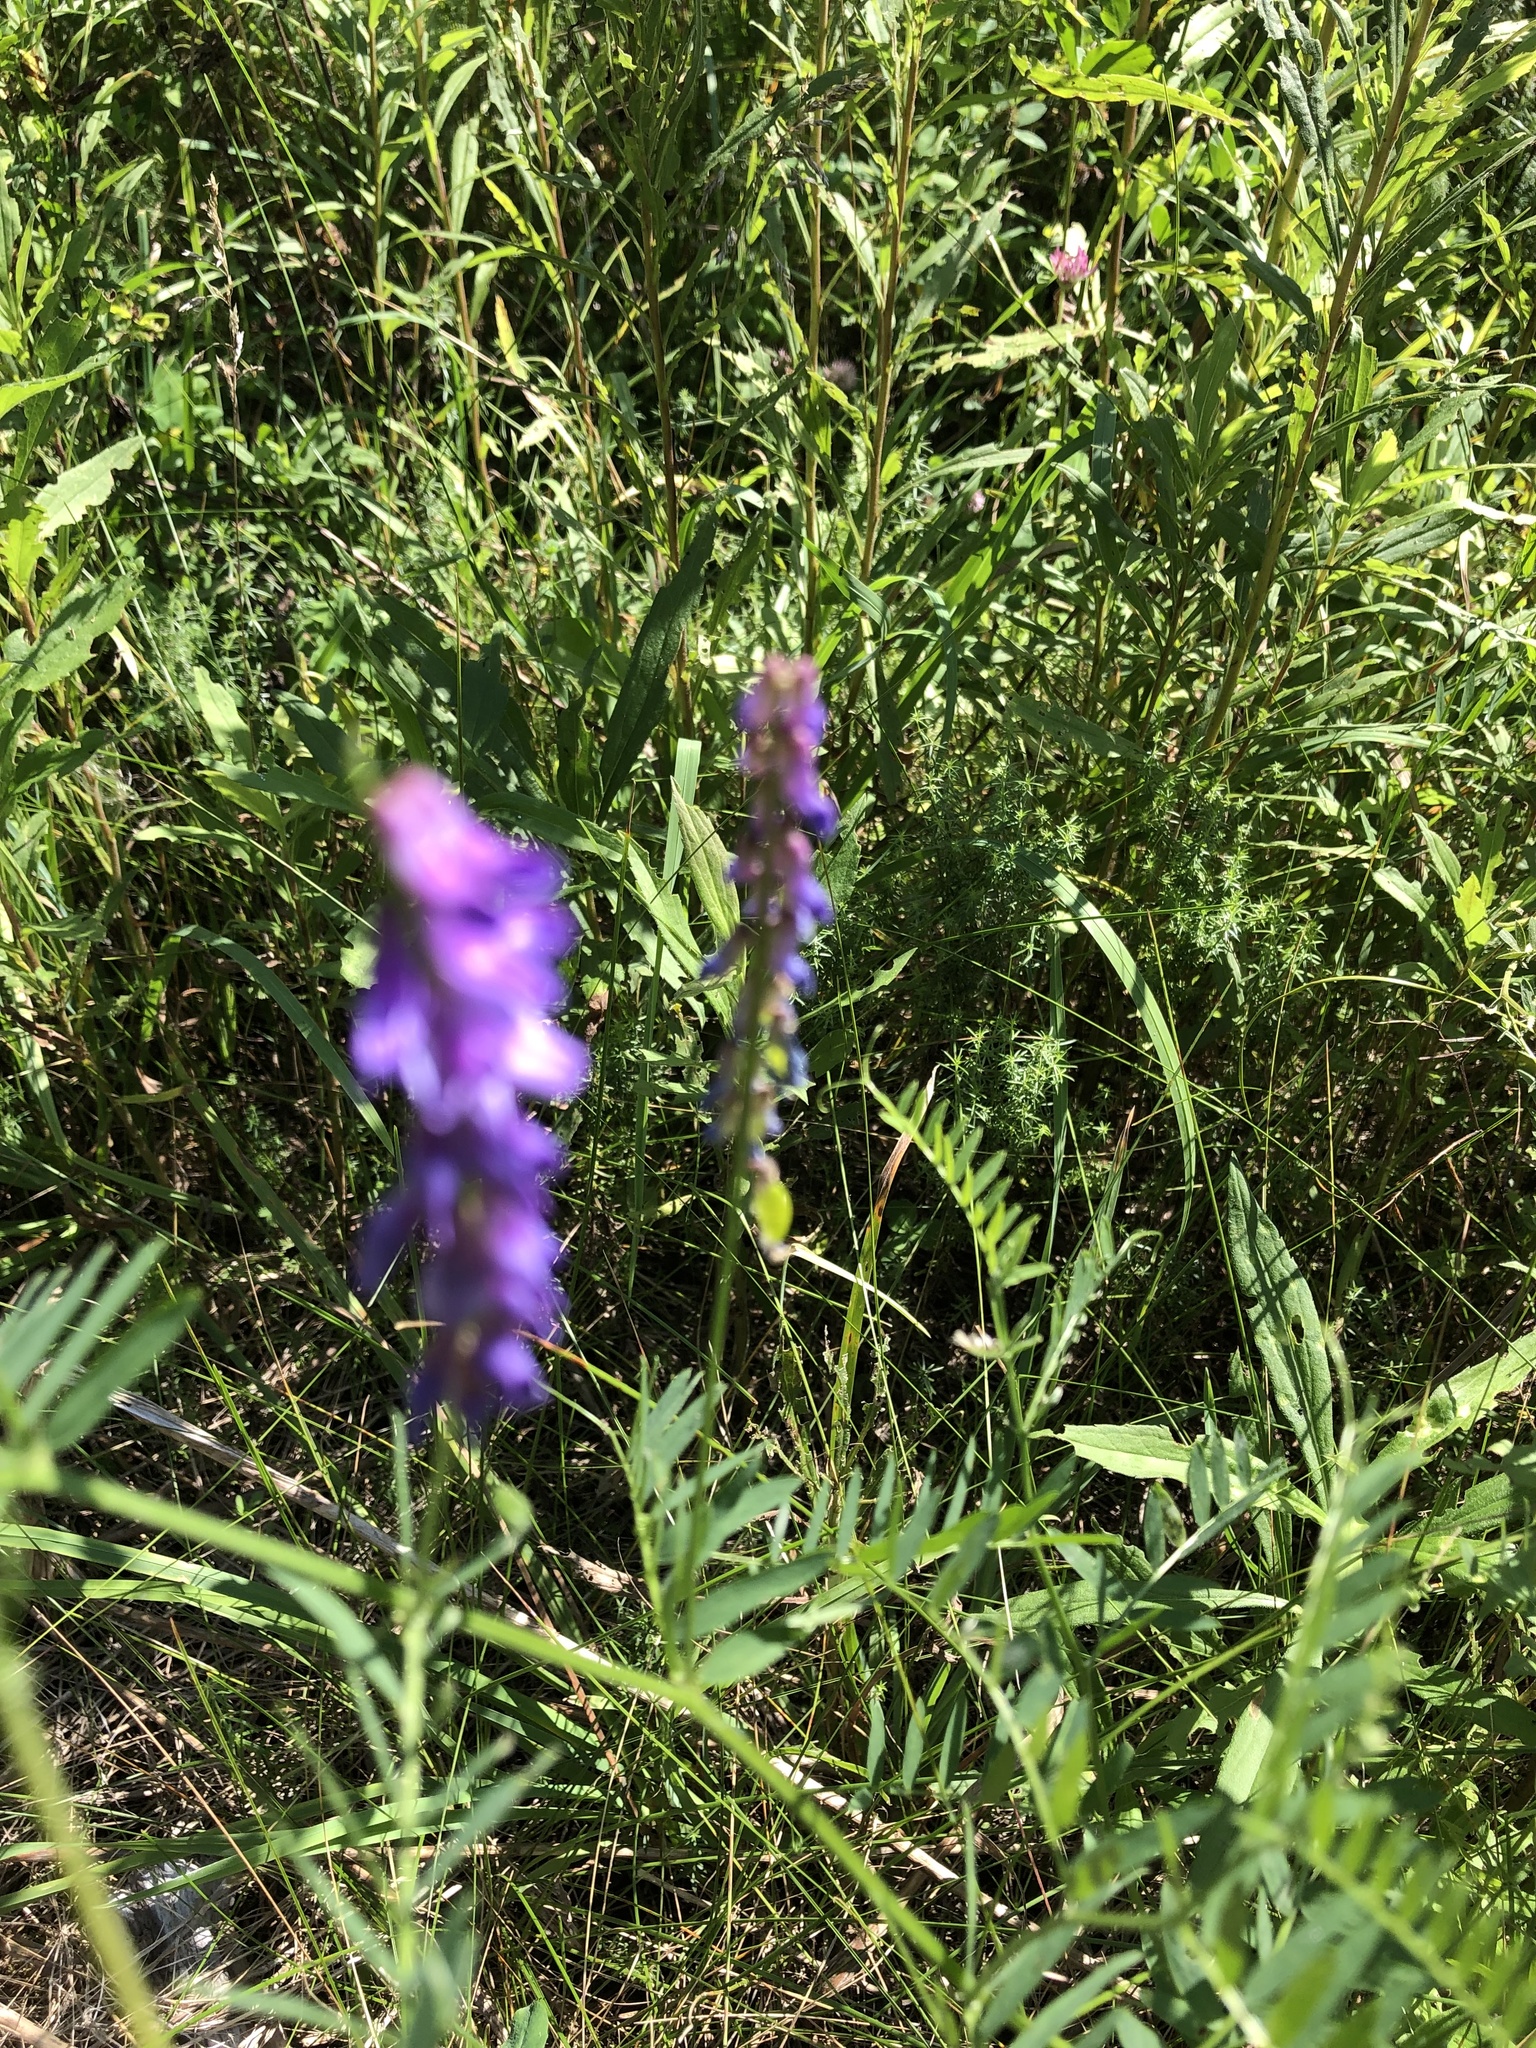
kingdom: Plantae
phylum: Tracheophyta
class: Magnoliopsida
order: Fabales
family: Fabaceae
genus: Vicia
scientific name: Vicia cracca
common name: Bird vetch
